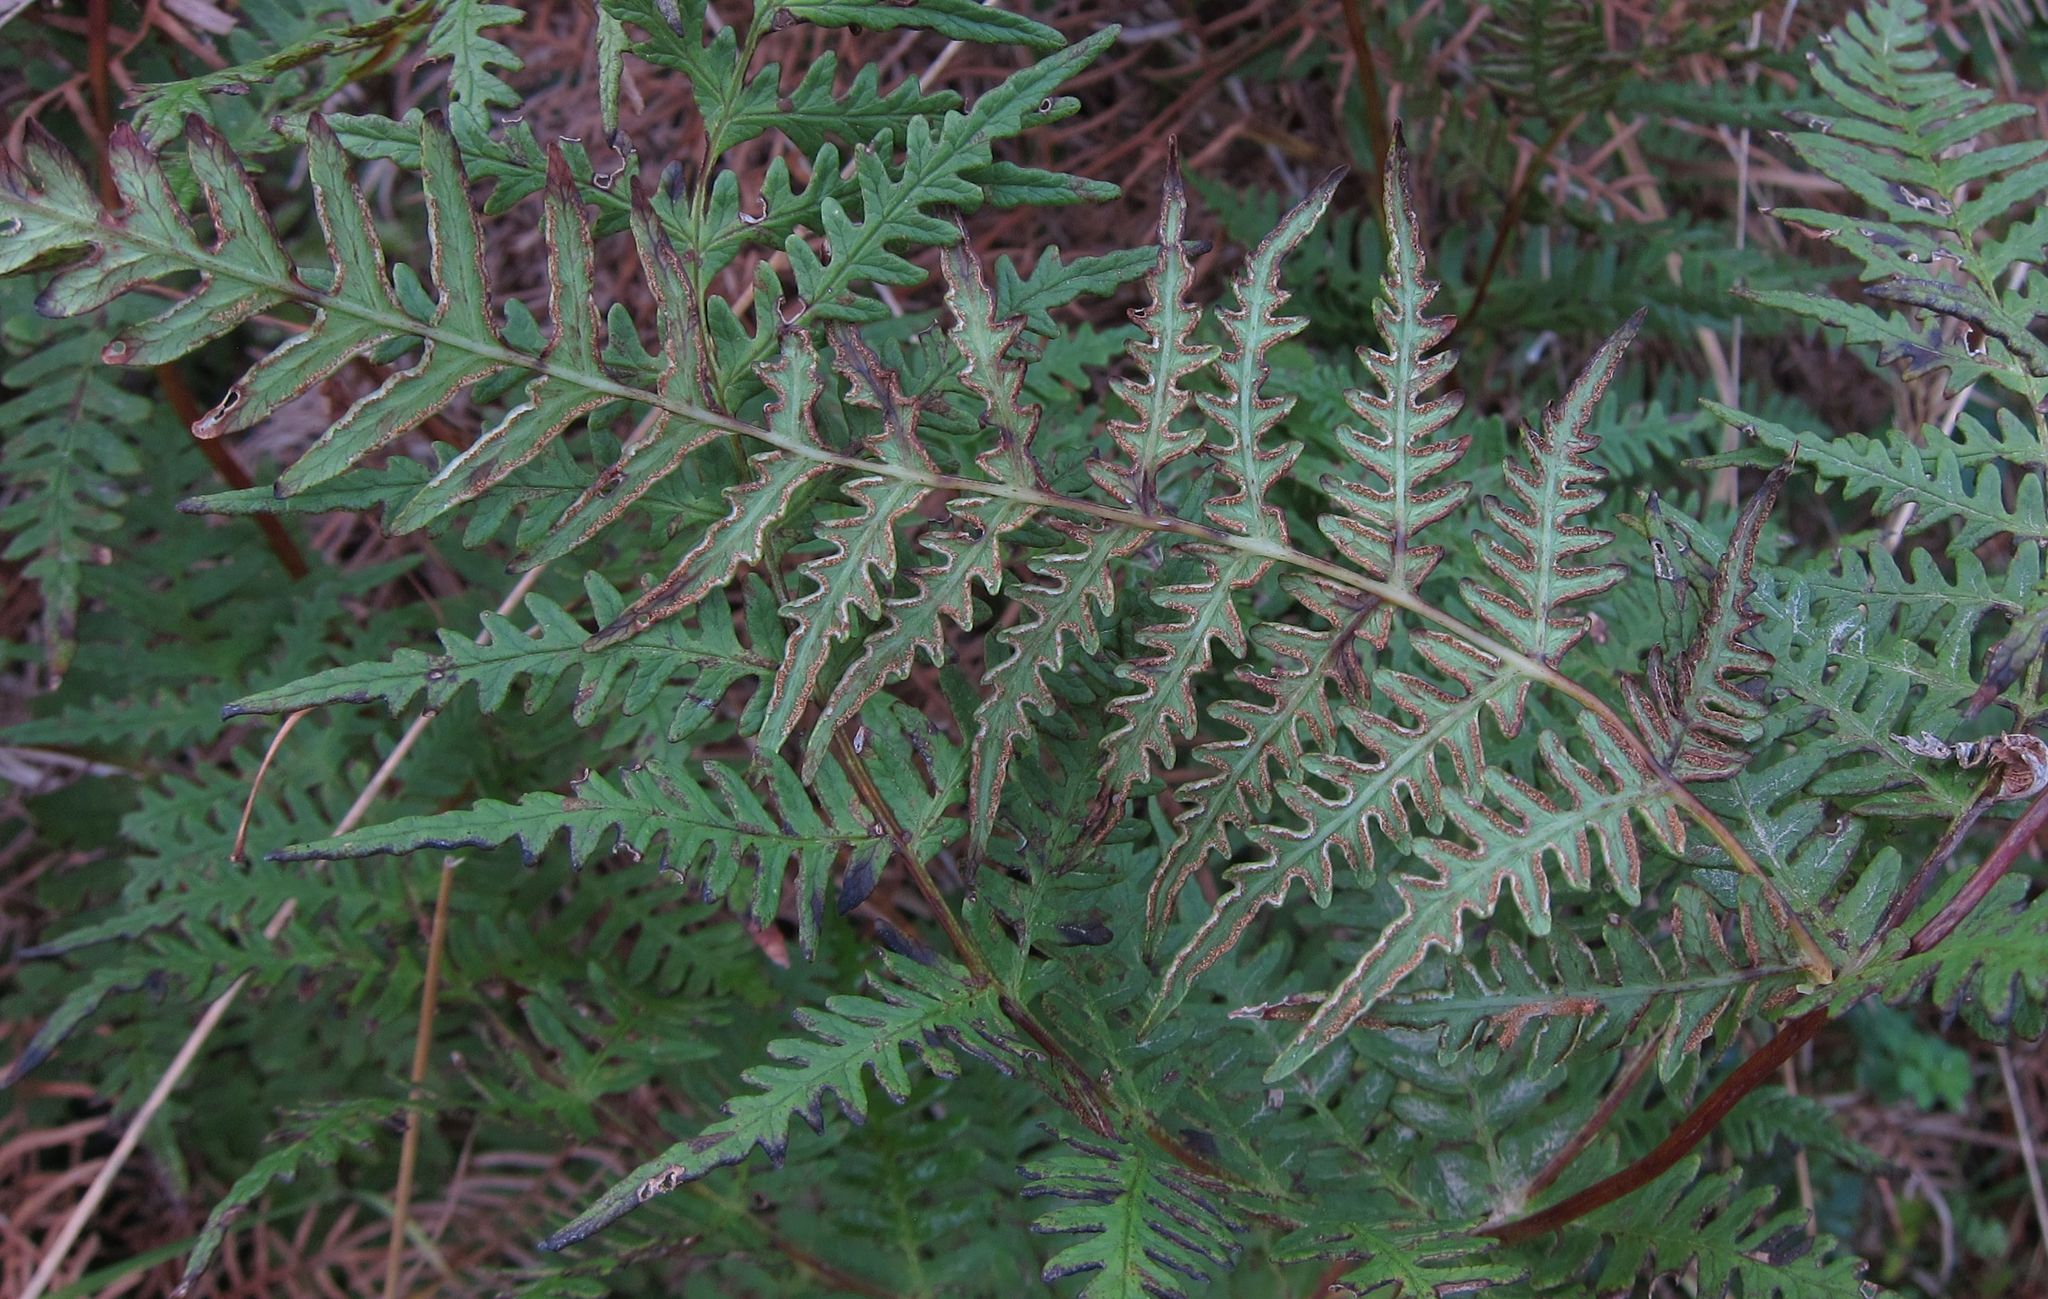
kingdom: Plantae
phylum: Tracheophyta
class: Polypodiopsida
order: Polypodiales
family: Dennstaedtiaceae
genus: Histiopteris
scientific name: Histiopteris incisa
